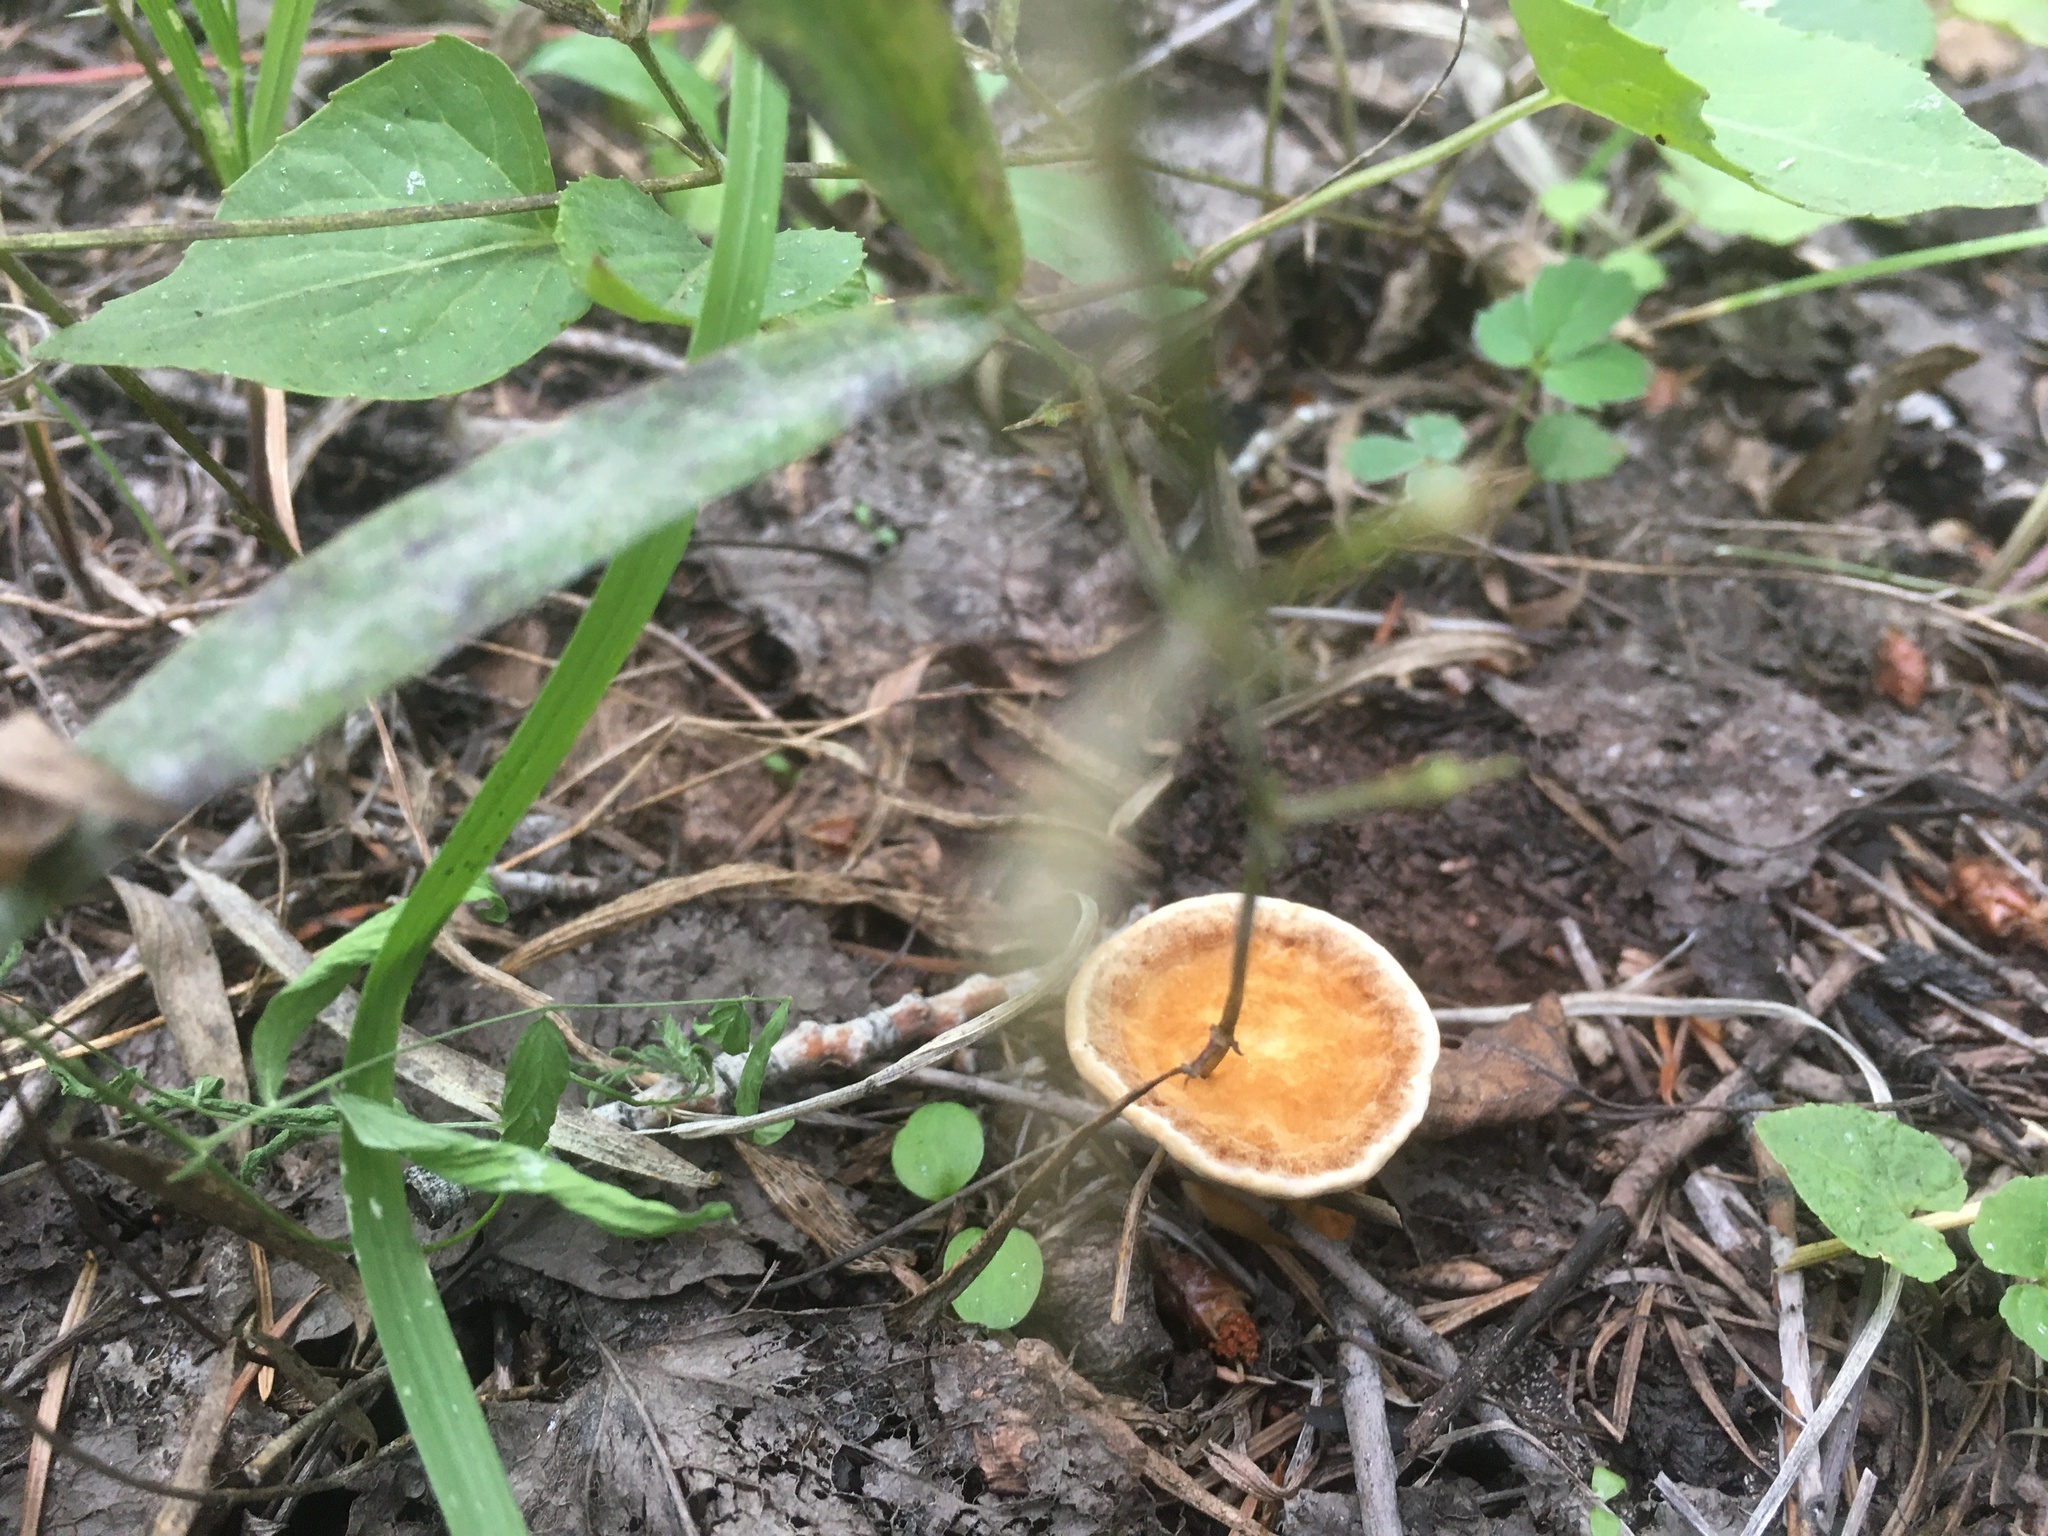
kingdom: Fungi
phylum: Basidiomycota
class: Agaricomycetes
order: Hymenochaetales
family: Hymenochaetaceae
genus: Onnia
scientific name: Onnia tomentosa
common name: Velvet rosette
